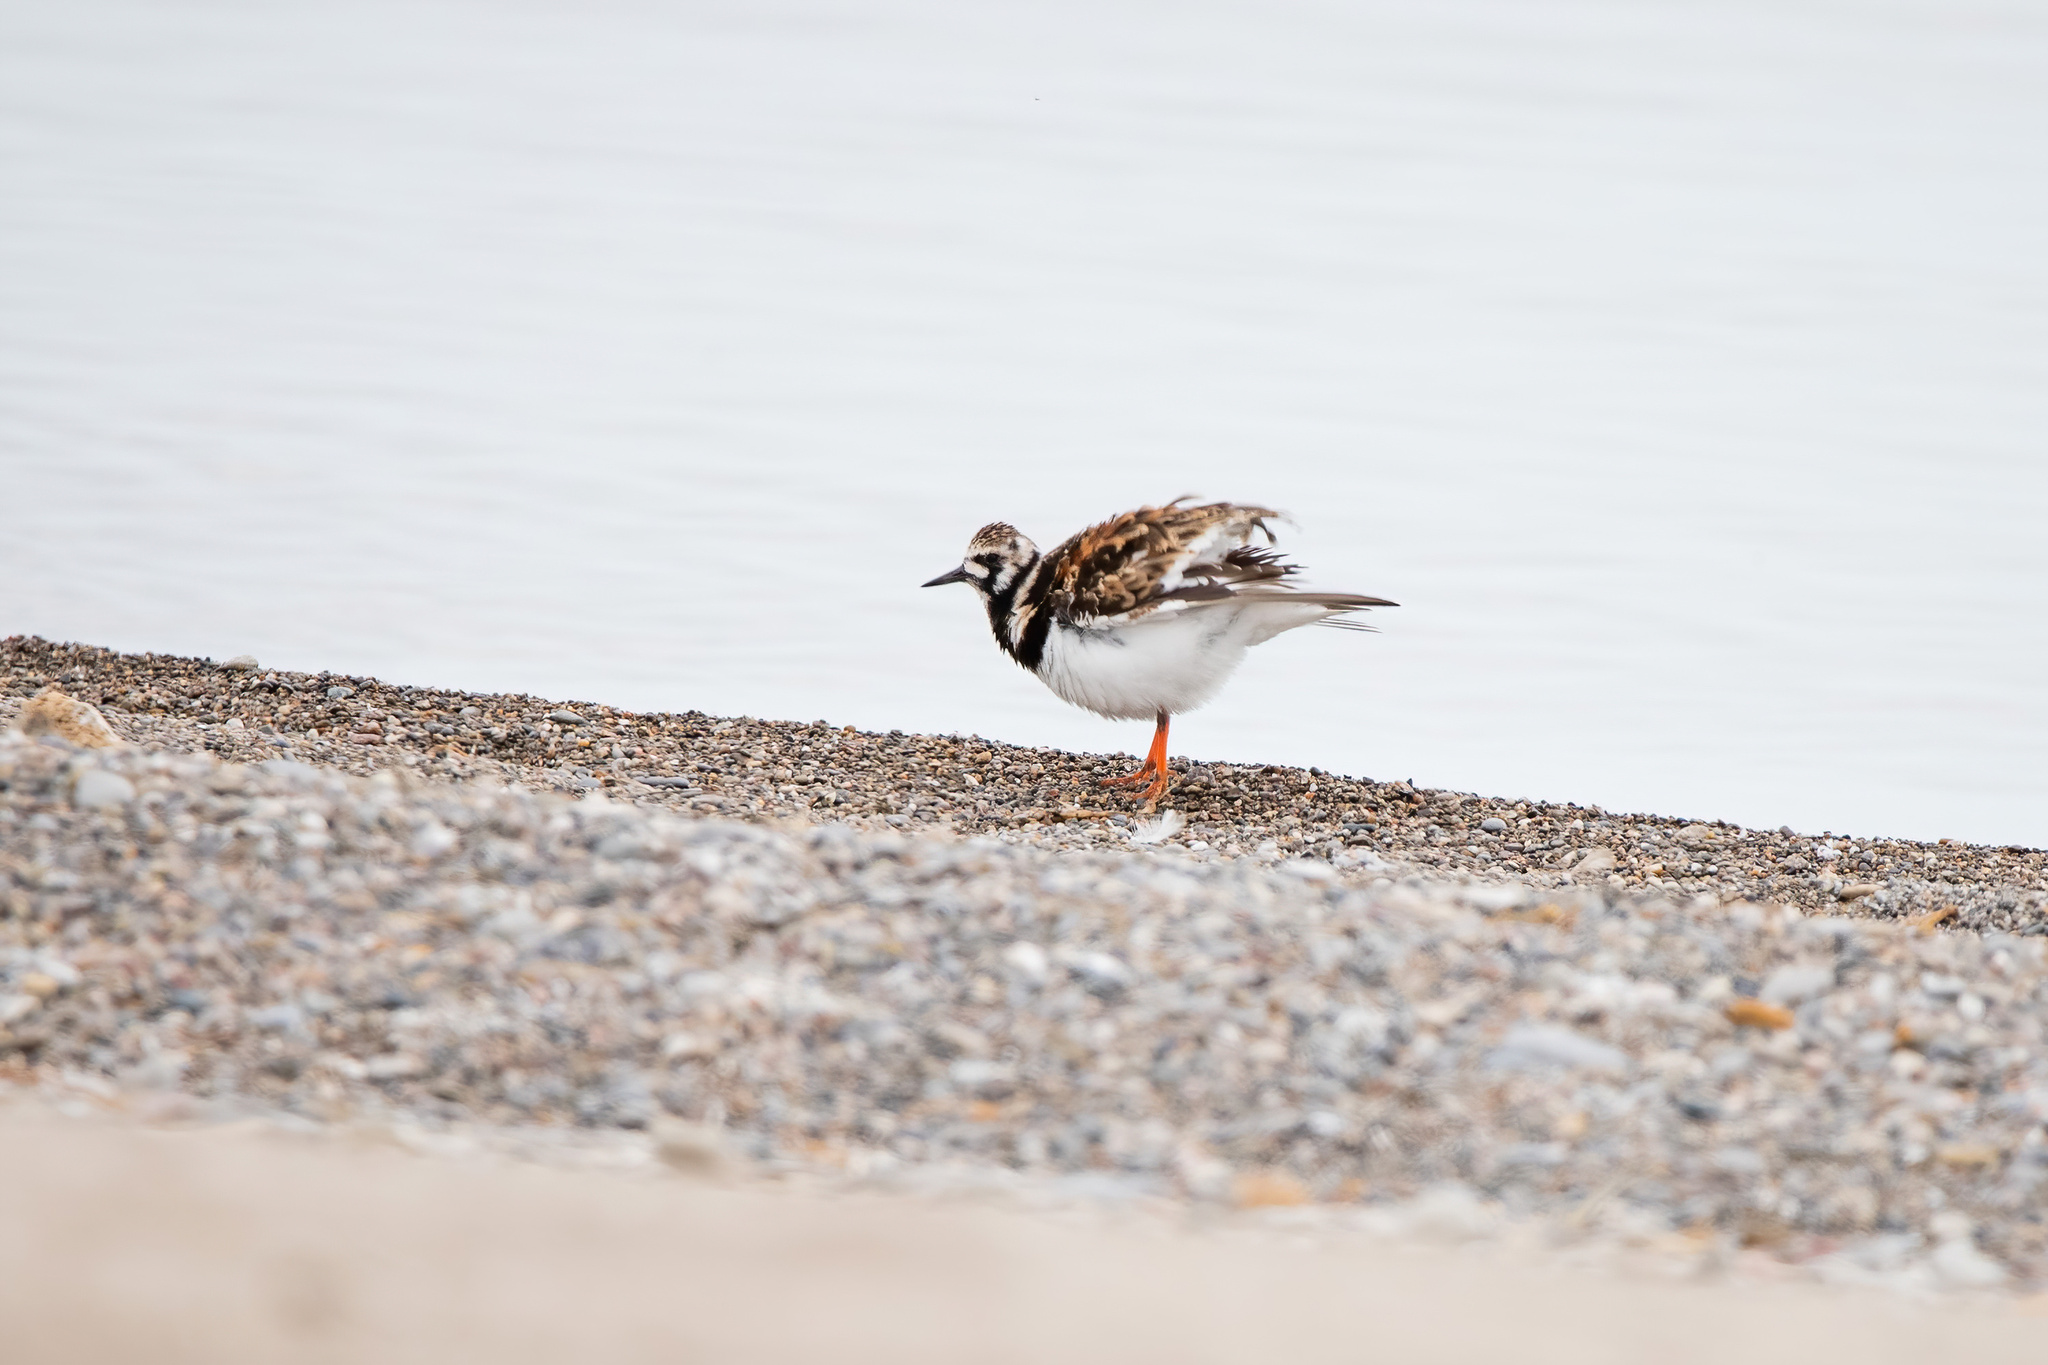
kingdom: Animalia
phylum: Chordata
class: Aves
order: Charadriiformes
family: Scolopacidae
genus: Arenaria
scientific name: Arenaria interpres
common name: Ruddy turnstone
